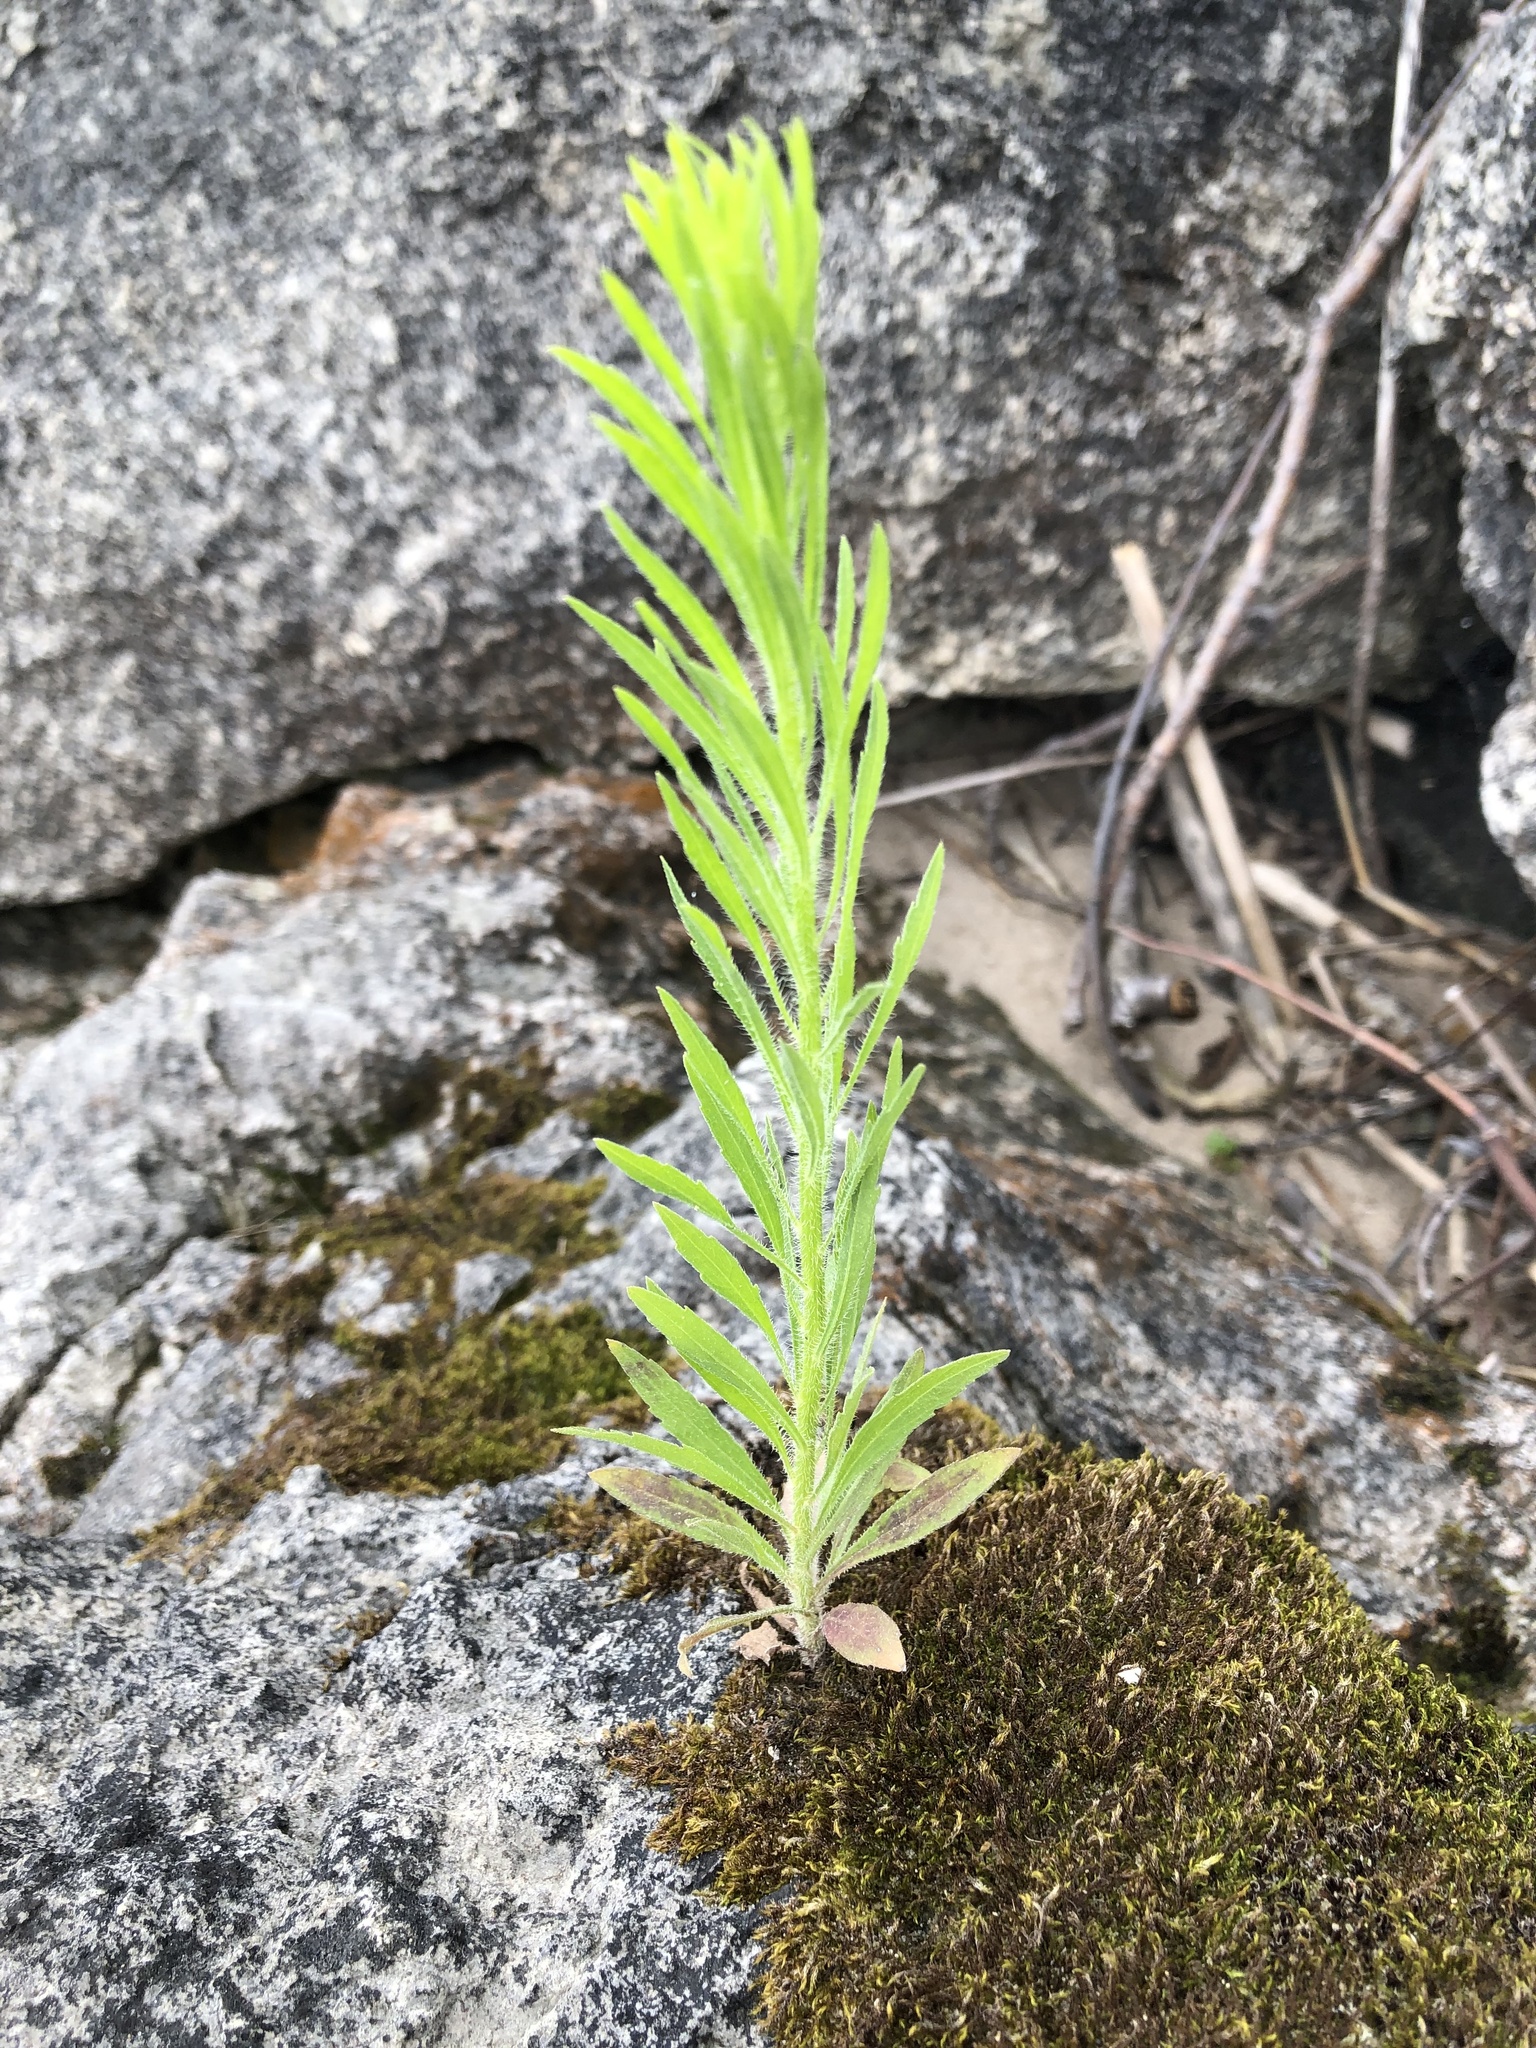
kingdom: Plantae
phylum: Tracheophyta
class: Magnoliopsida
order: Asterales
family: Asteraceae
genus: Erigeron
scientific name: Erigeron canadensis
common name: Canadian fleabane
